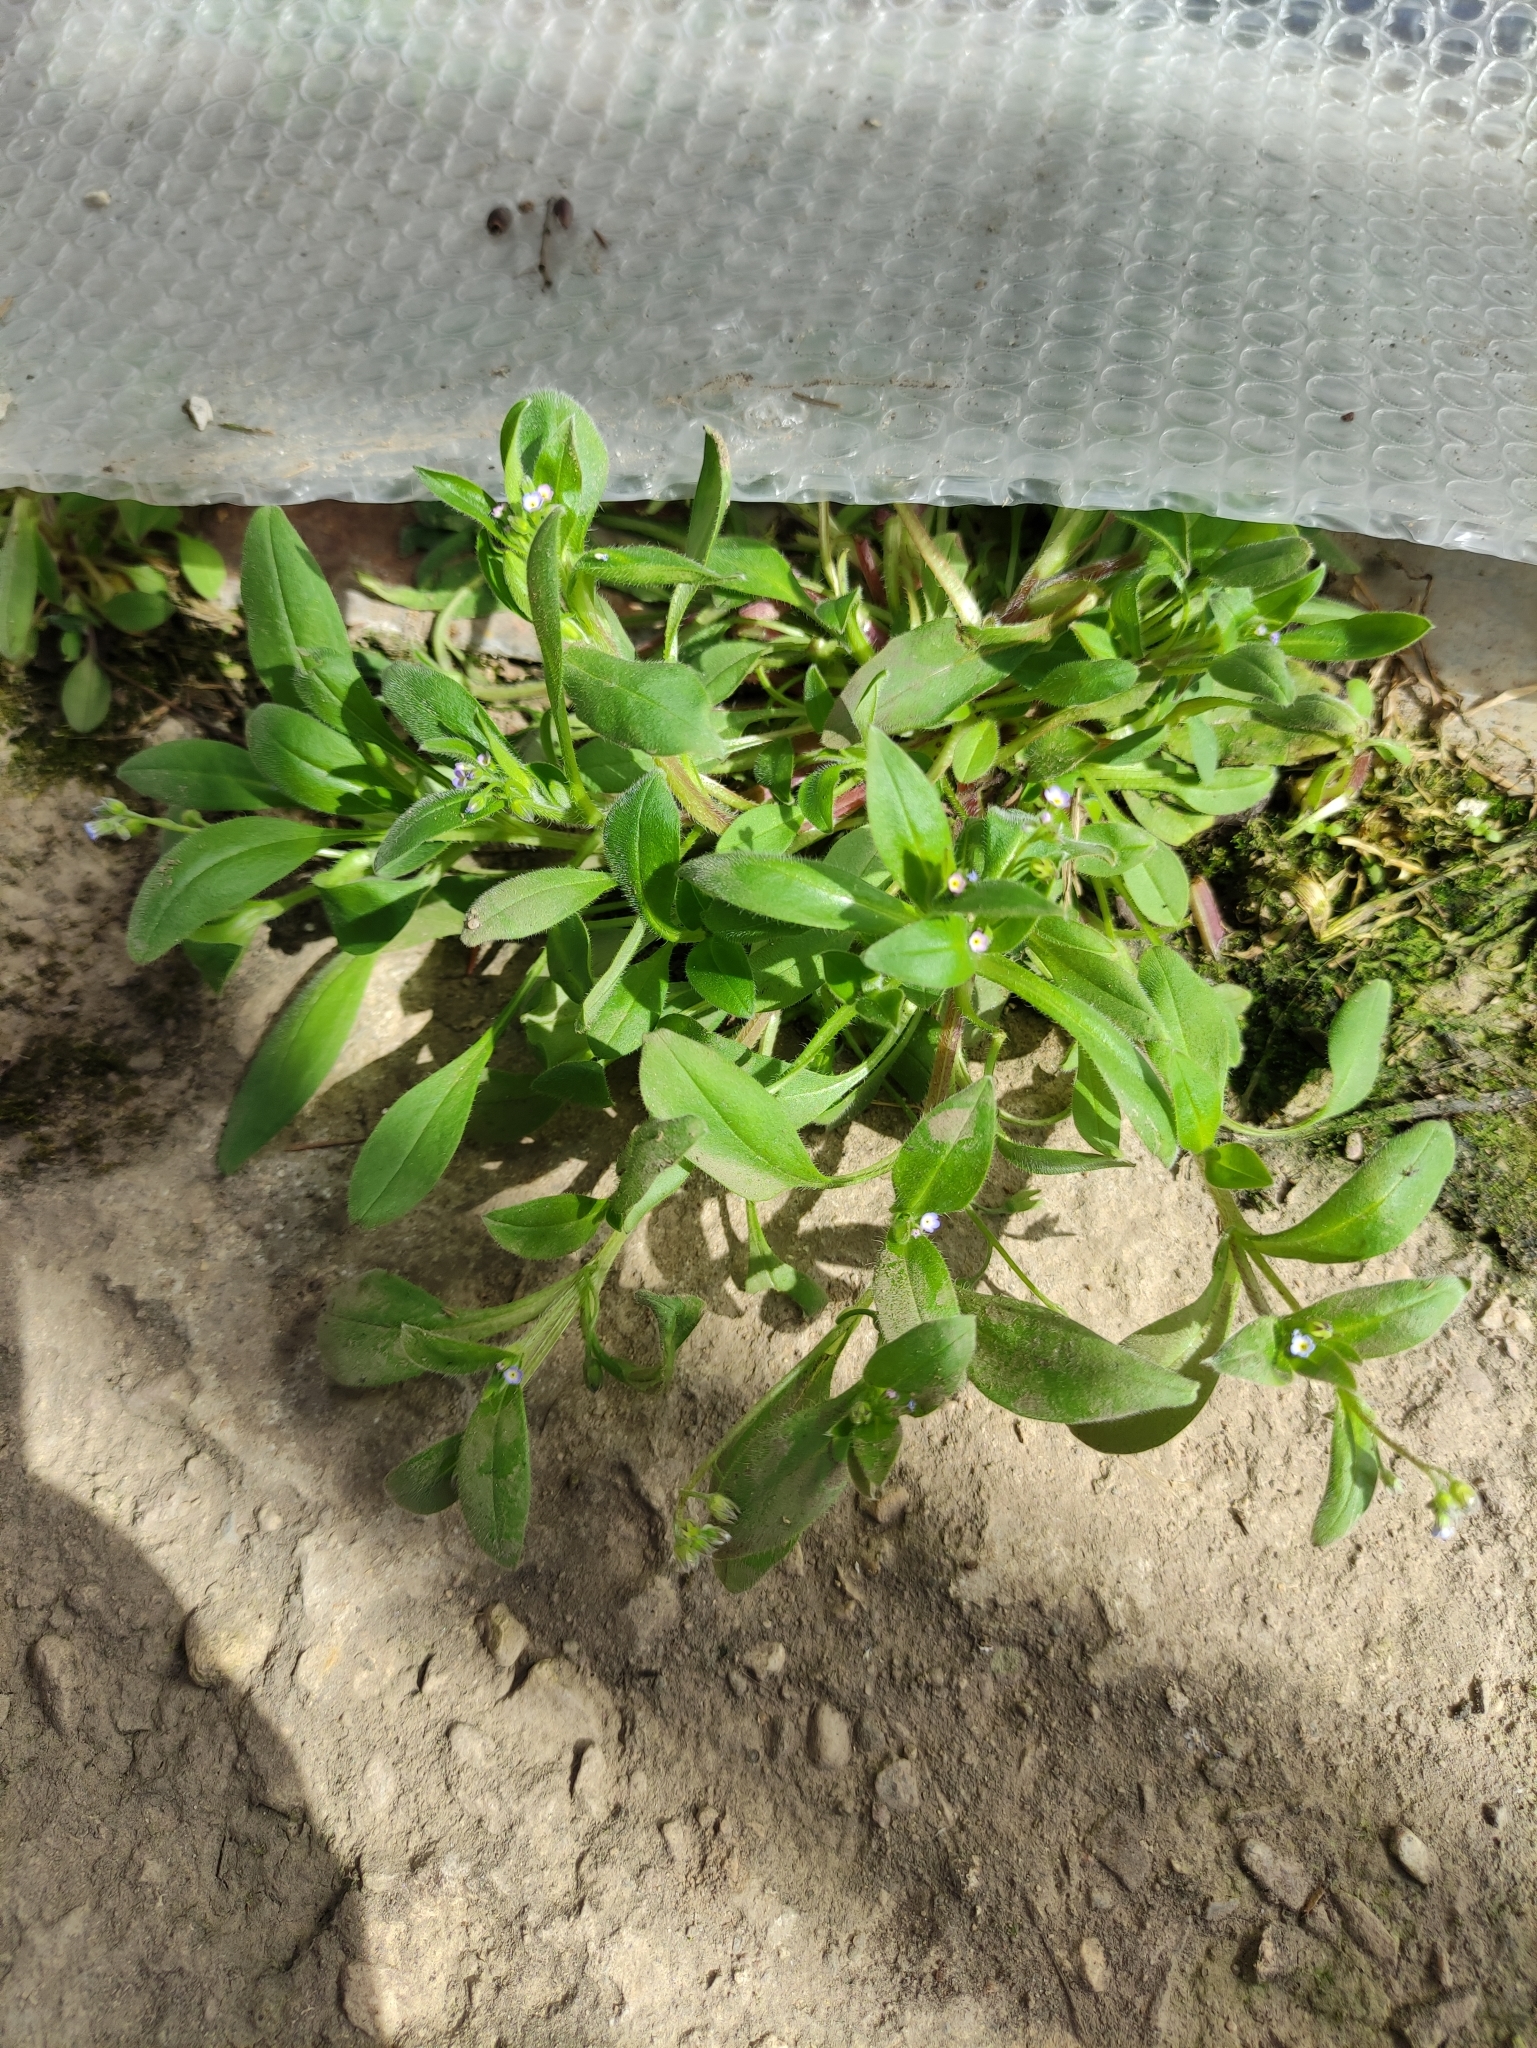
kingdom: Plantae
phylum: Tracheophyta
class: Magnoliopsida
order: Boraginales
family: Boraginaceae
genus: Asperugo
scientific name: Asperugo procumbens
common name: Madwort
